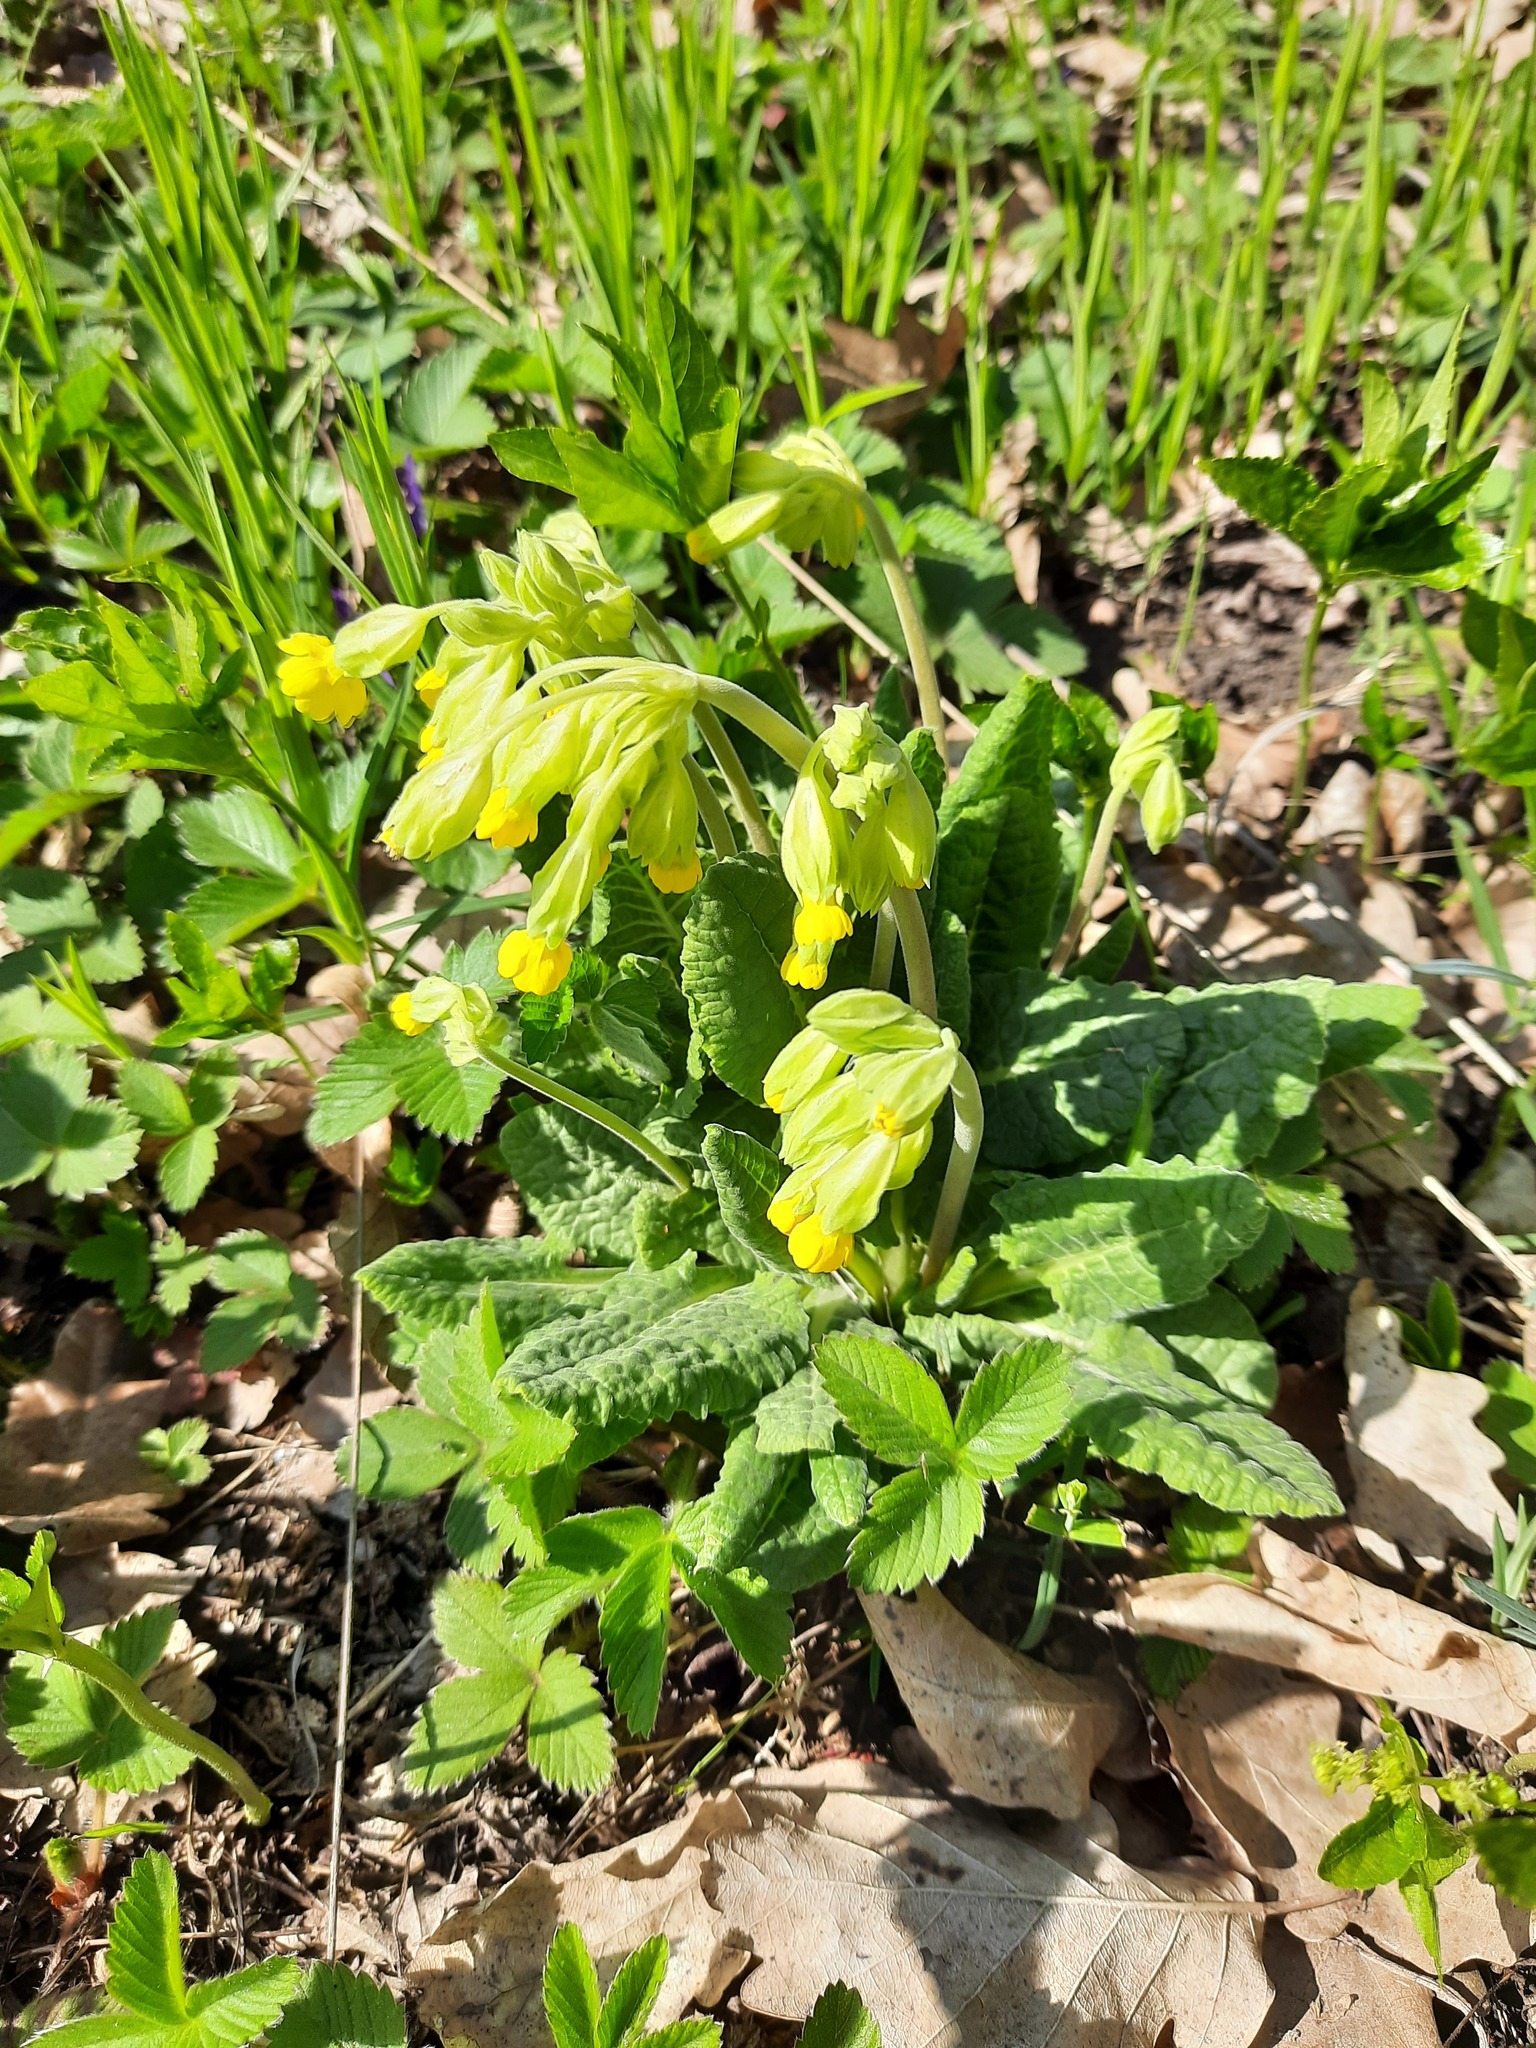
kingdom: Plantae
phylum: Tracheophyta
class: Magnoliopsida
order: Ericales
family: Primulaceae
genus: Primula
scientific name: Primula veris
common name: Cowslip
